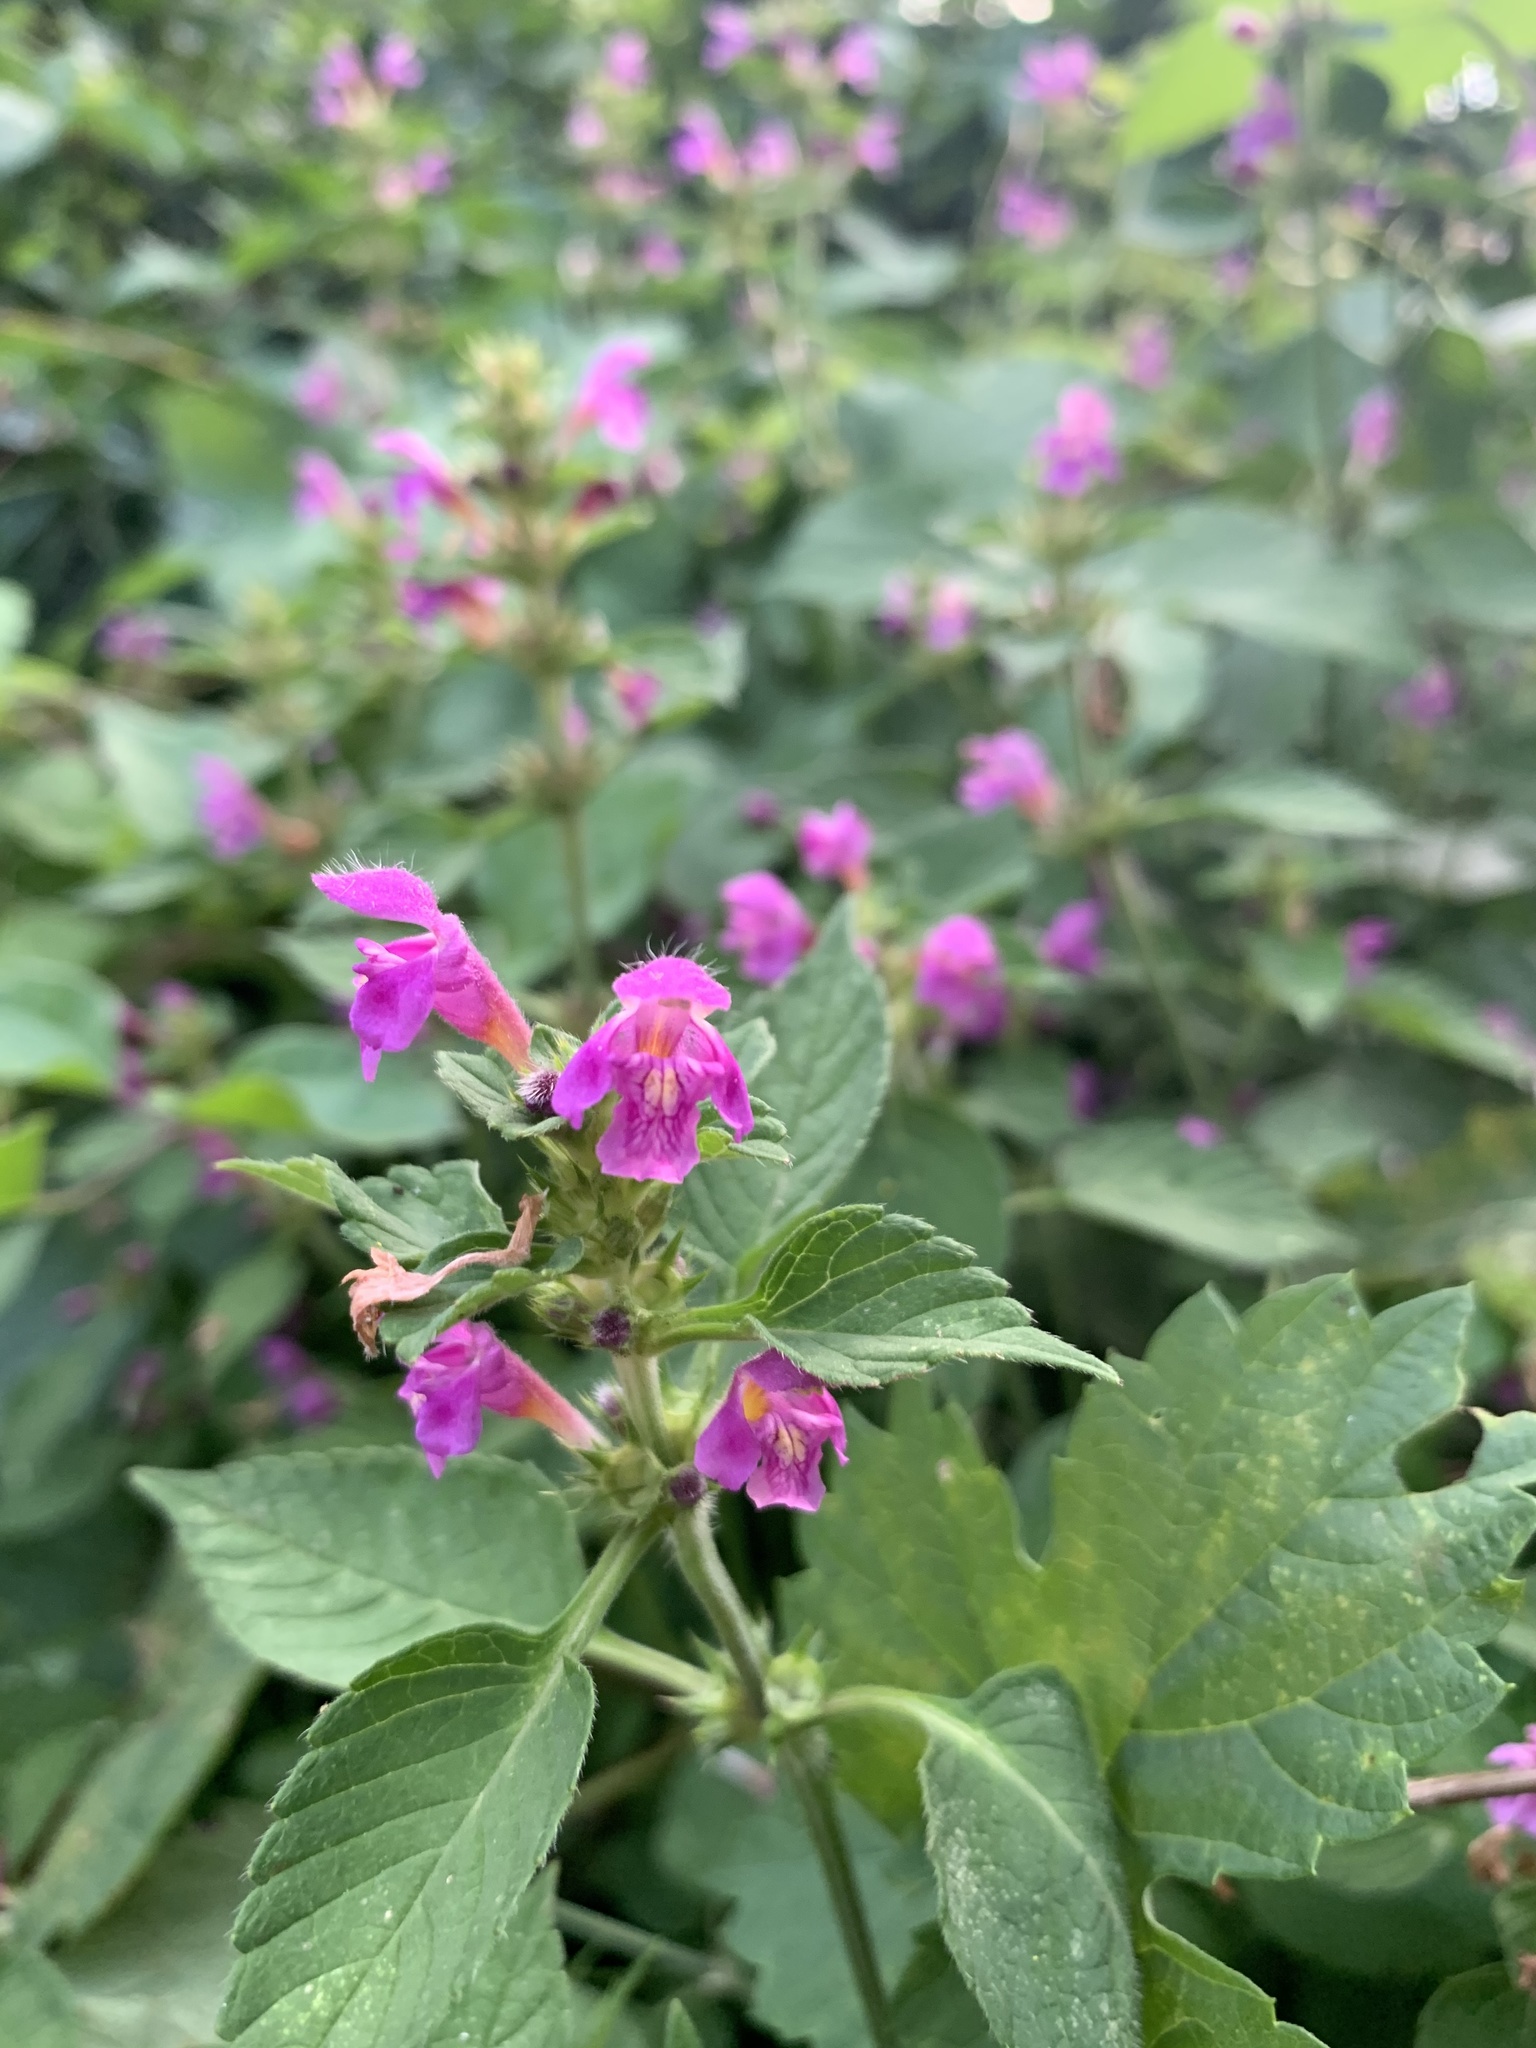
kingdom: Plantae
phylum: Tracheophyta
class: Magnoliopsida
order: Lamiales
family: Lamiaceae
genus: Galeopsis
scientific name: Galeopsis pubescens
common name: Downy hemp-nettle
